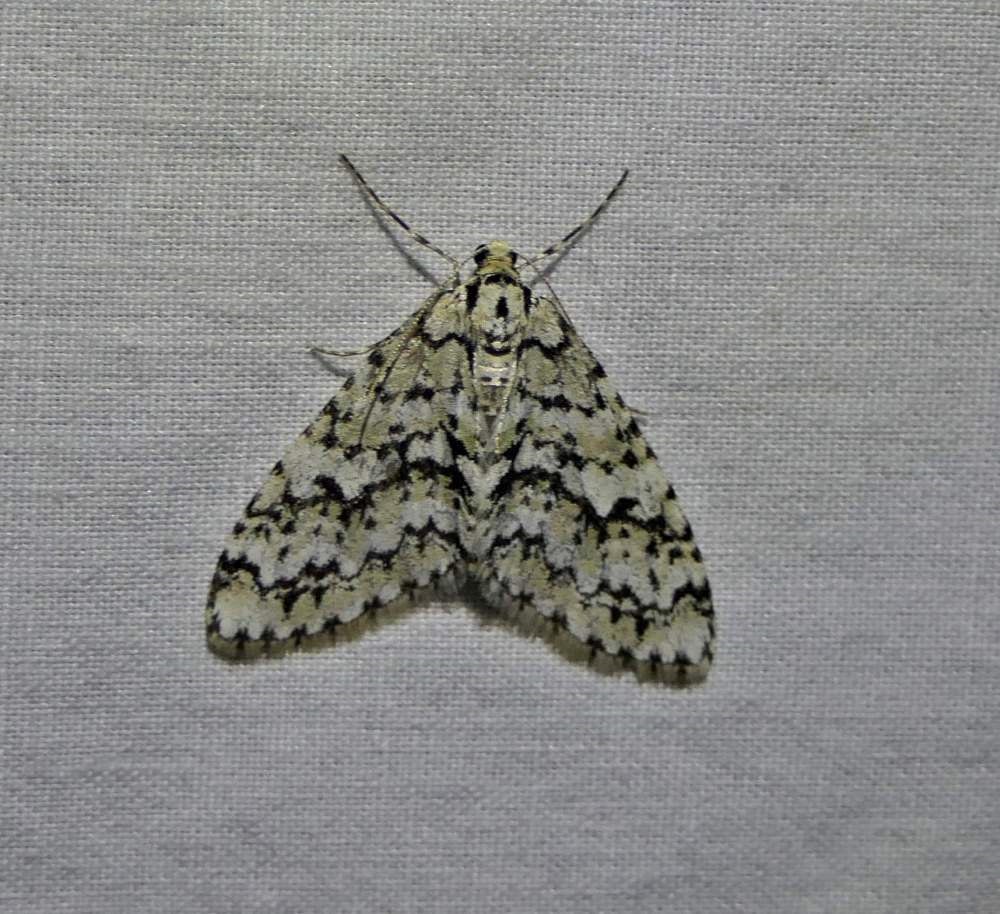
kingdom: Animalia
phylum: Arthropoda
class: Insecta
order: Lepidoptera
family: Geometridae
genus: Cladara
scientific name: Cladara atroliturata
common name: Scribbler
